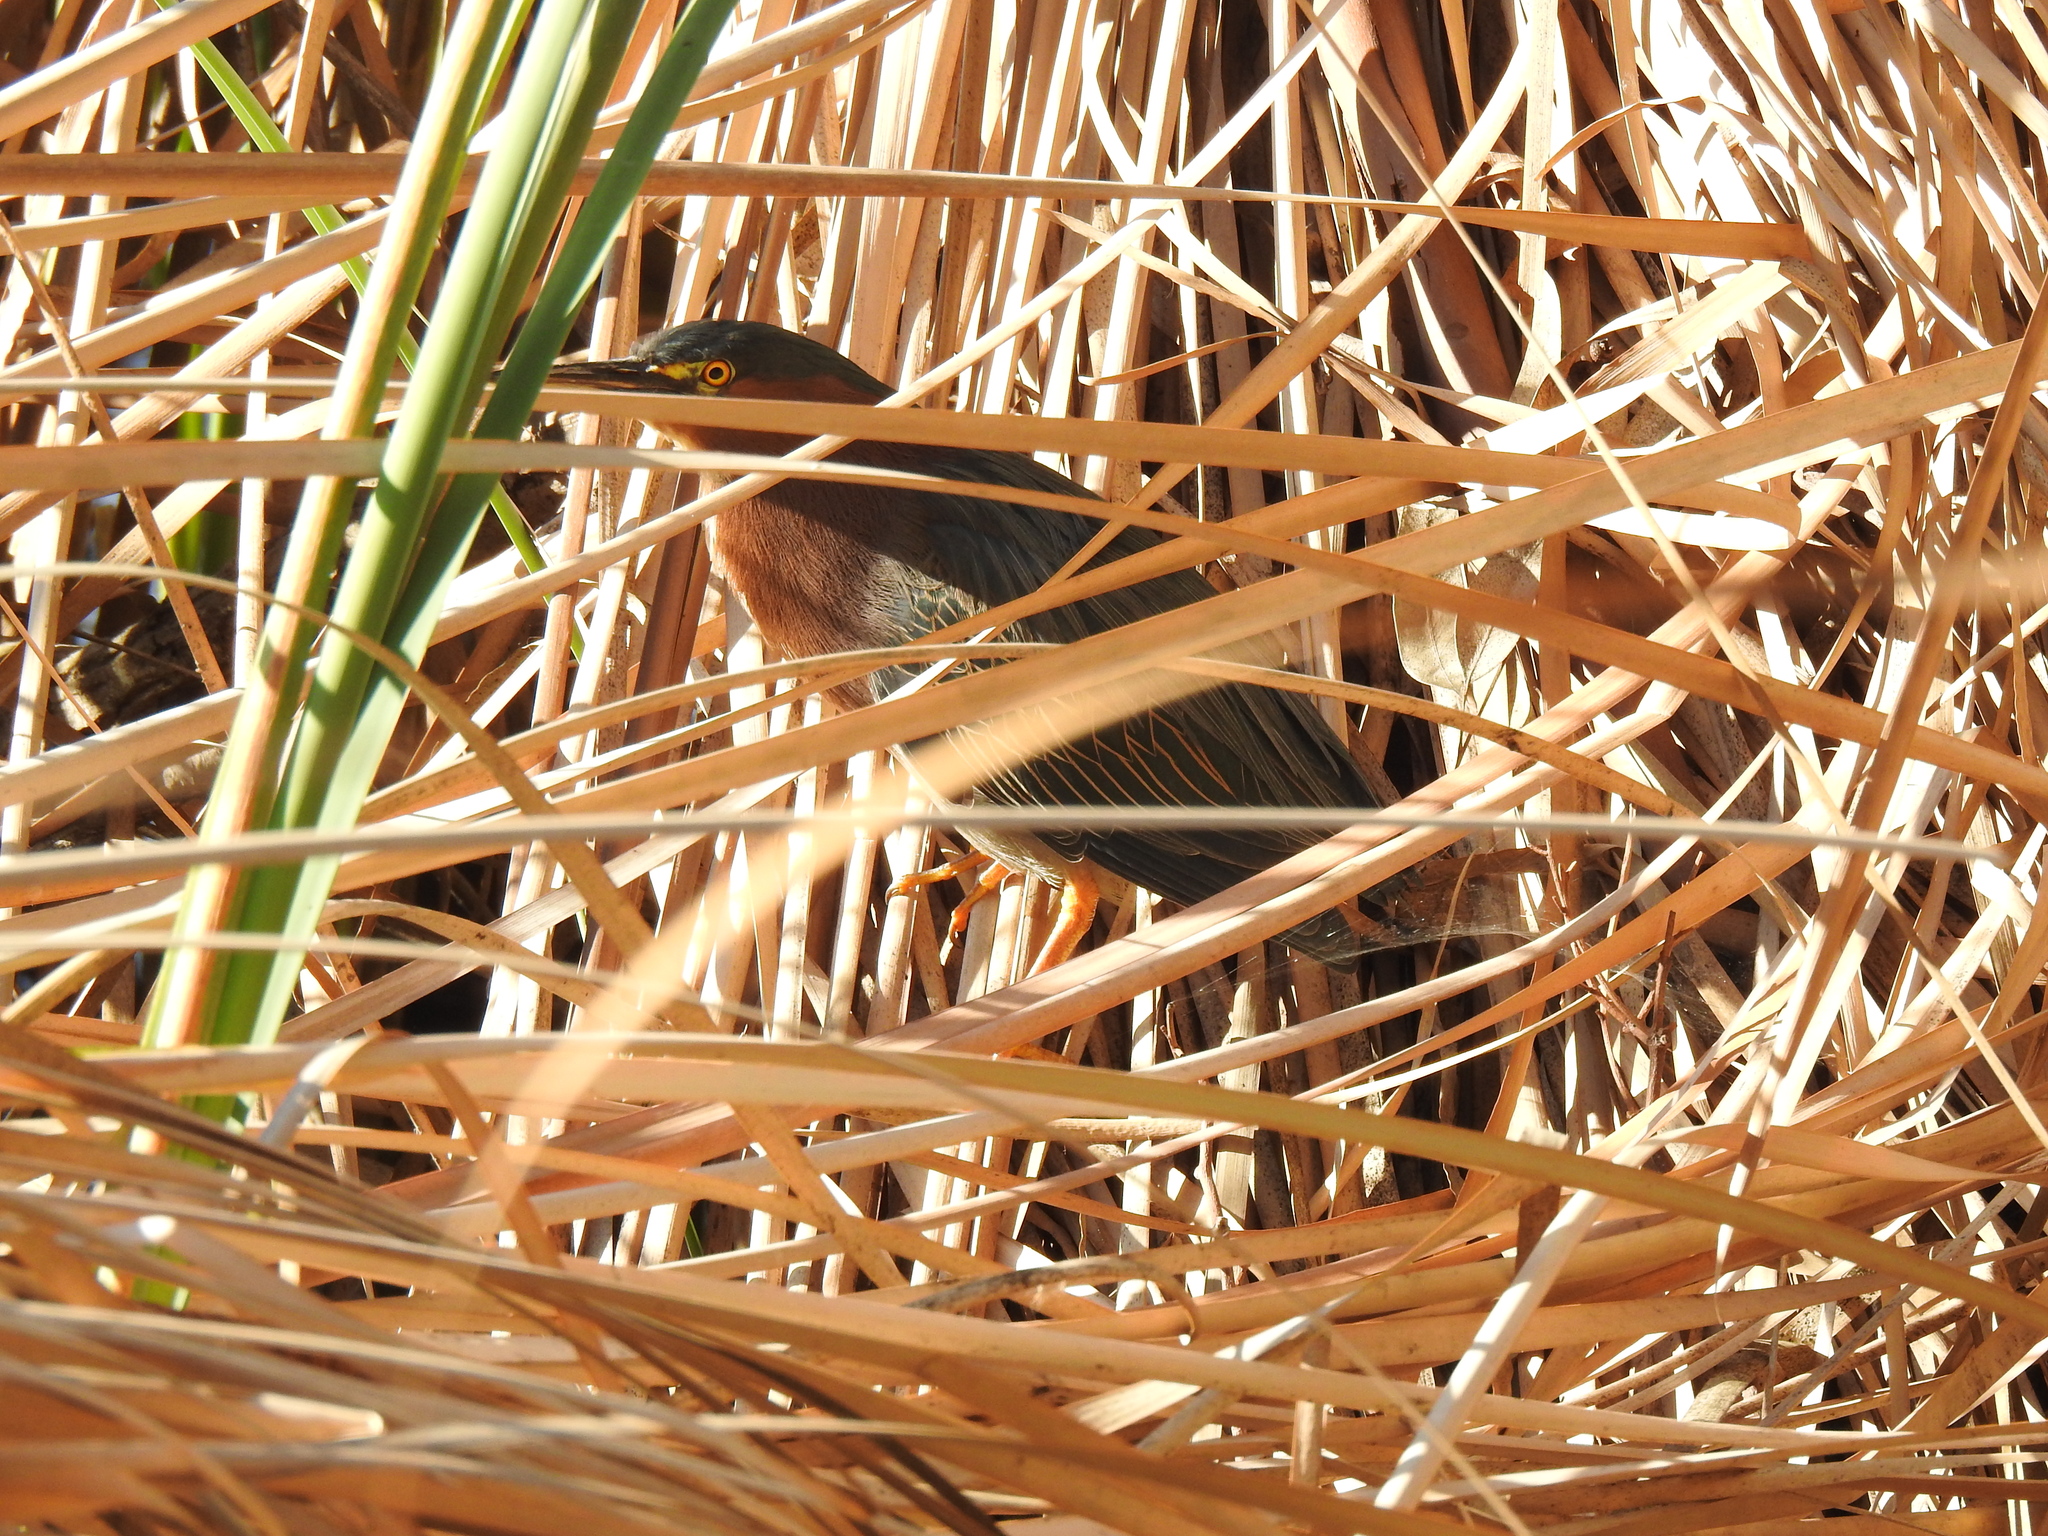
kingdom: Animalia
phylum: Chordata
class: Aves
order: Pelecaniformes
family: Ardeidae
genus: Butorides
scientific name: Butorides virescens
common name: Green heron
